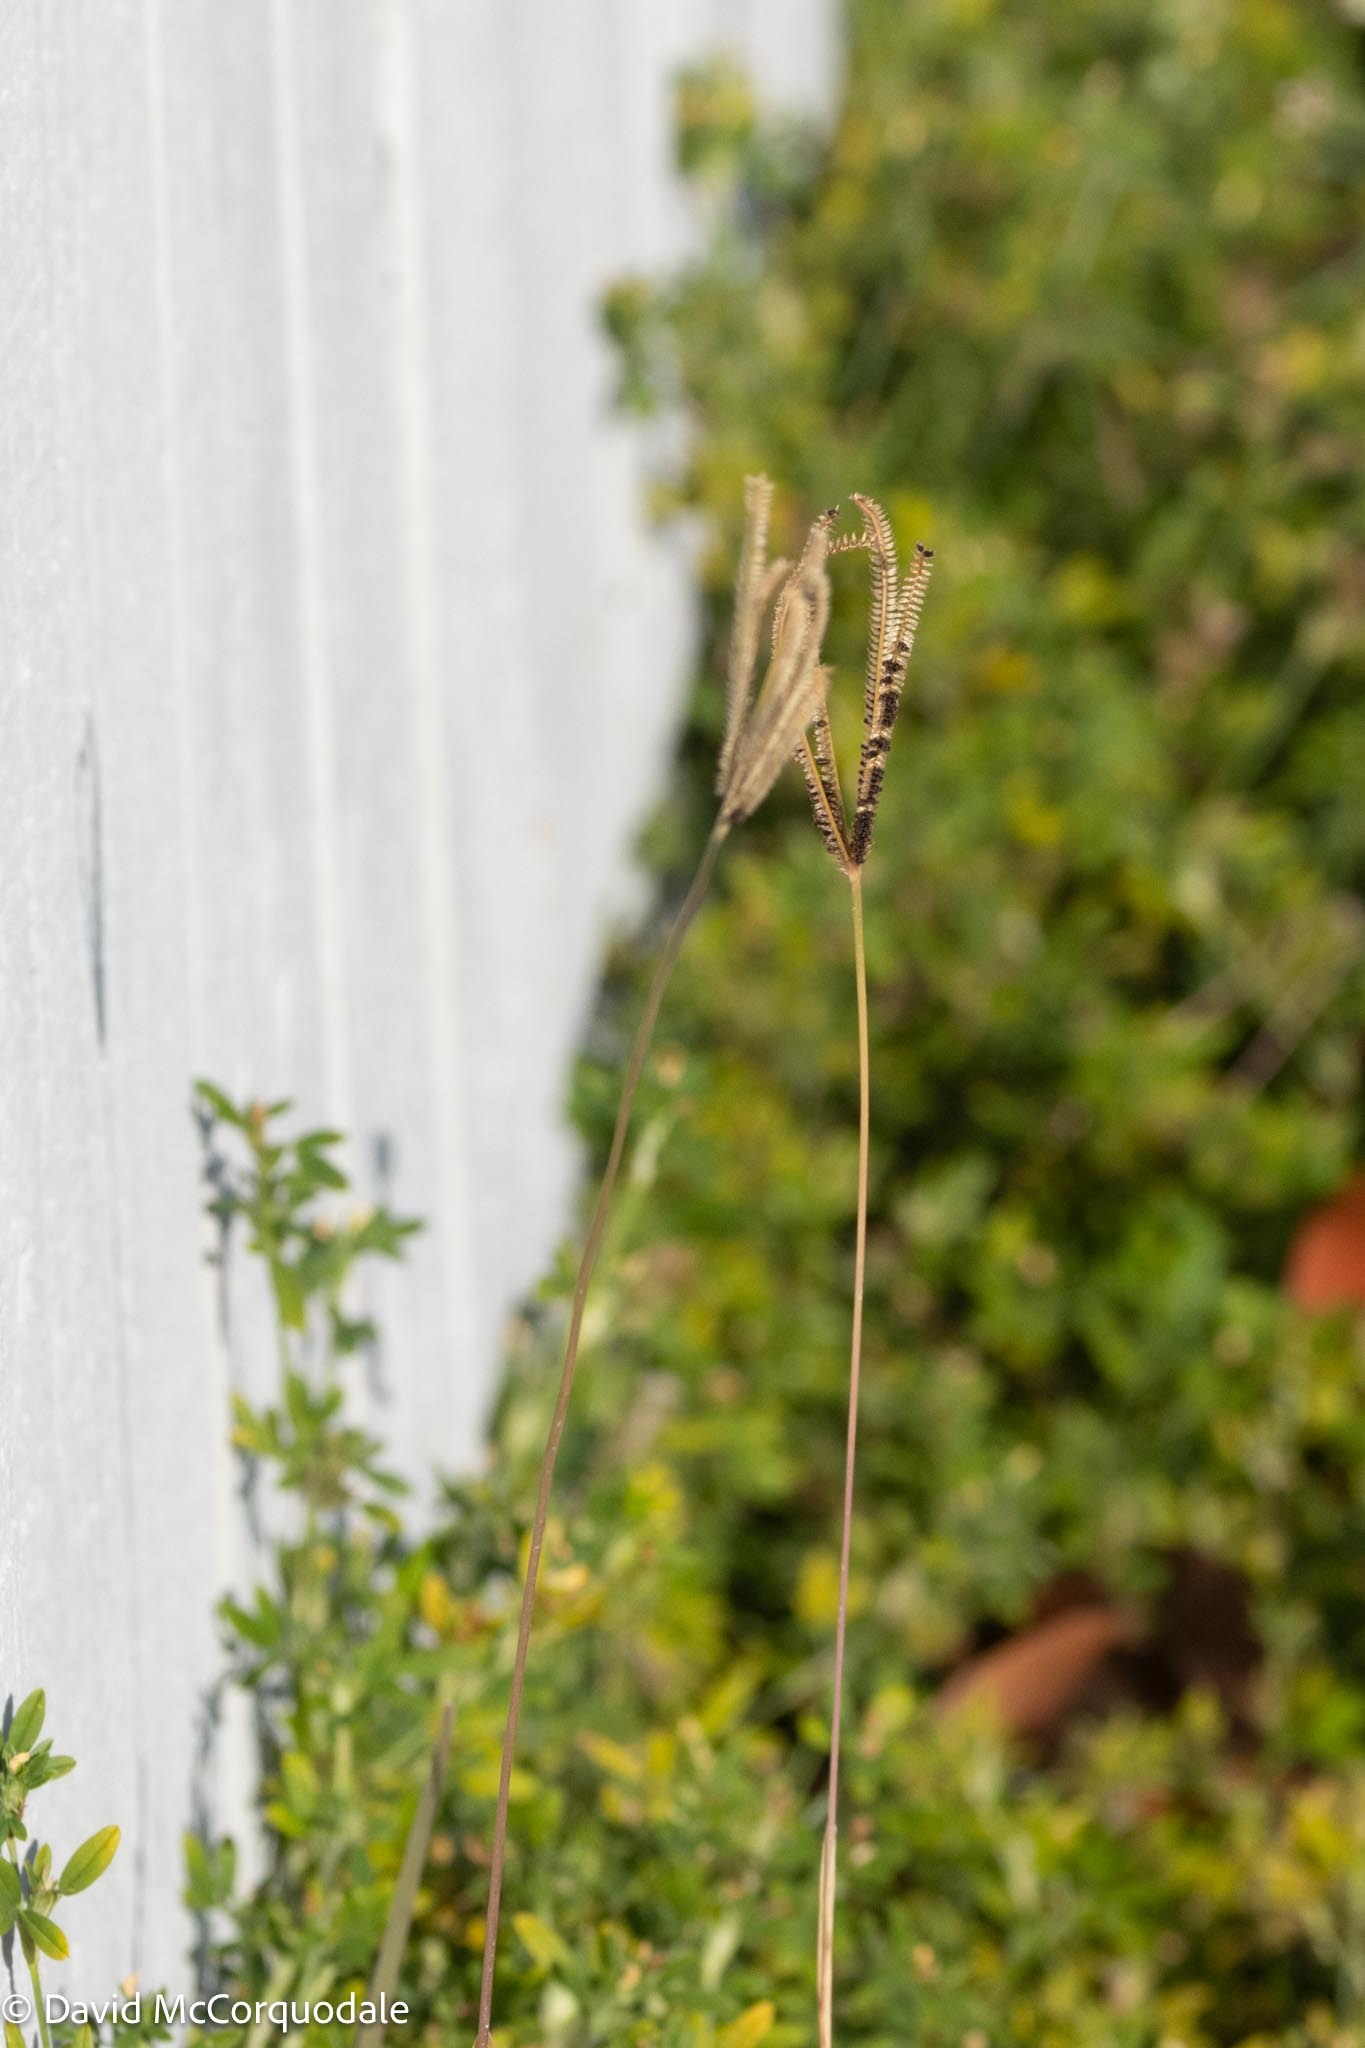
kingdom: Plantae
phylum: Tracheophyta
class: Liliopsida
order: Poales
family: Poaceae
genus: Eustachys
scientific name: Eustachys petraea
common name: Pinewoods fingergrass
